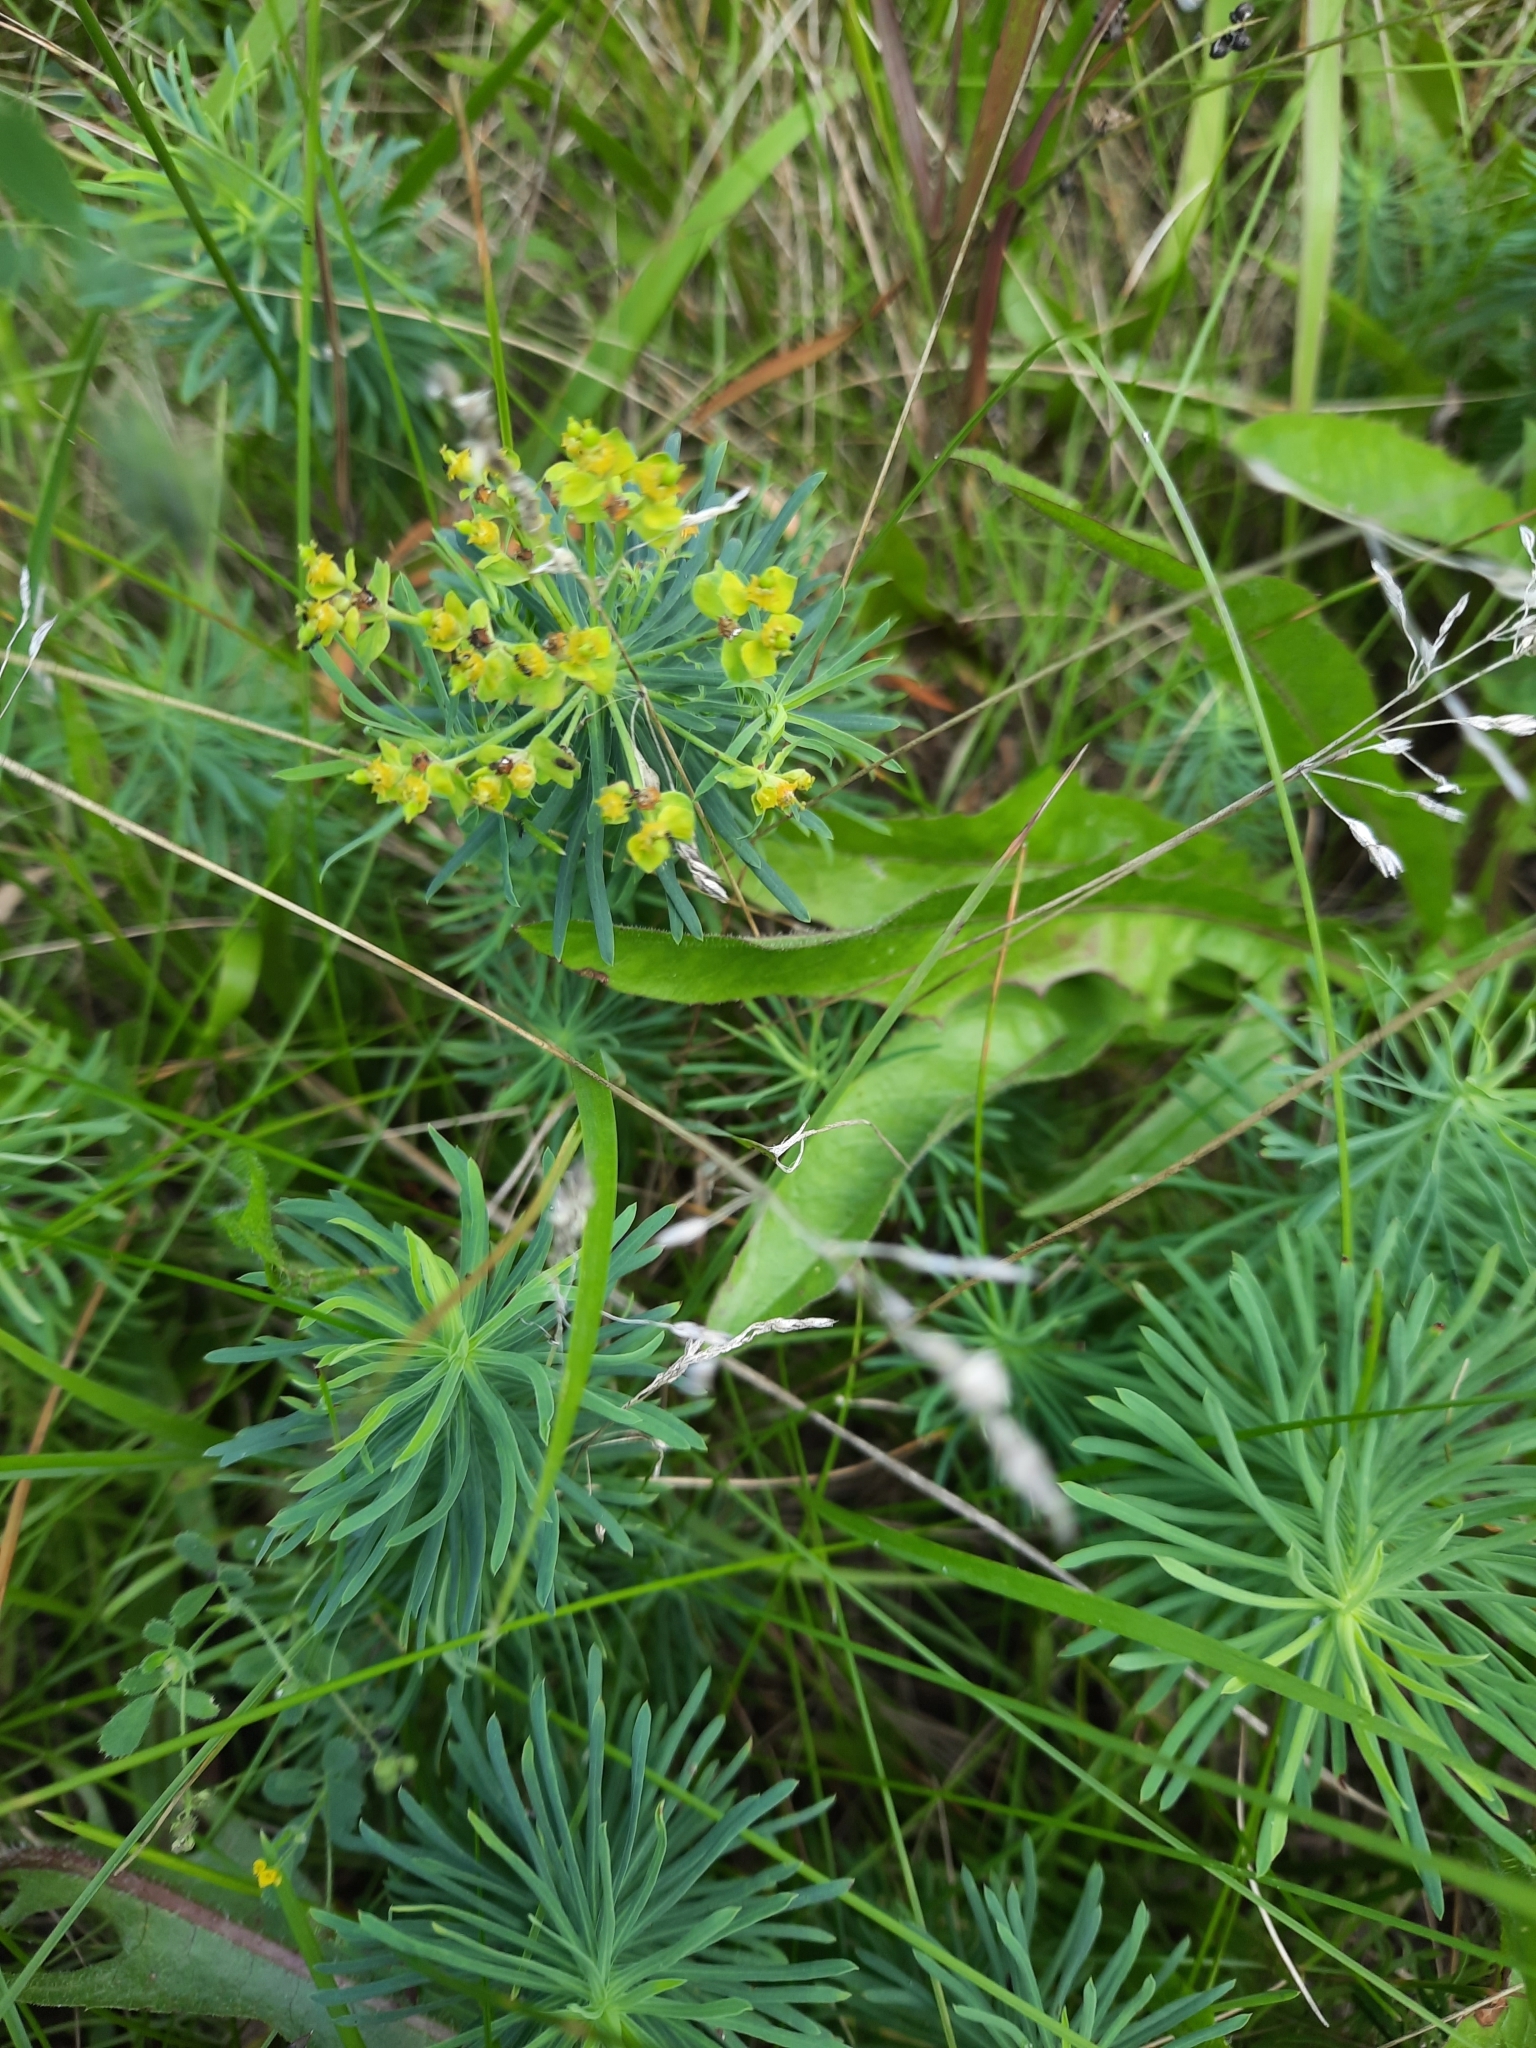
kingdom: Plantae
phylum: Tracheophyta
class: Magnoliopsida
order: Malpighiales
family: Euphorbiaceae
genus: Euphorbia
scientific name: Euphorbia cyparissias
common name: Cypress spurge
